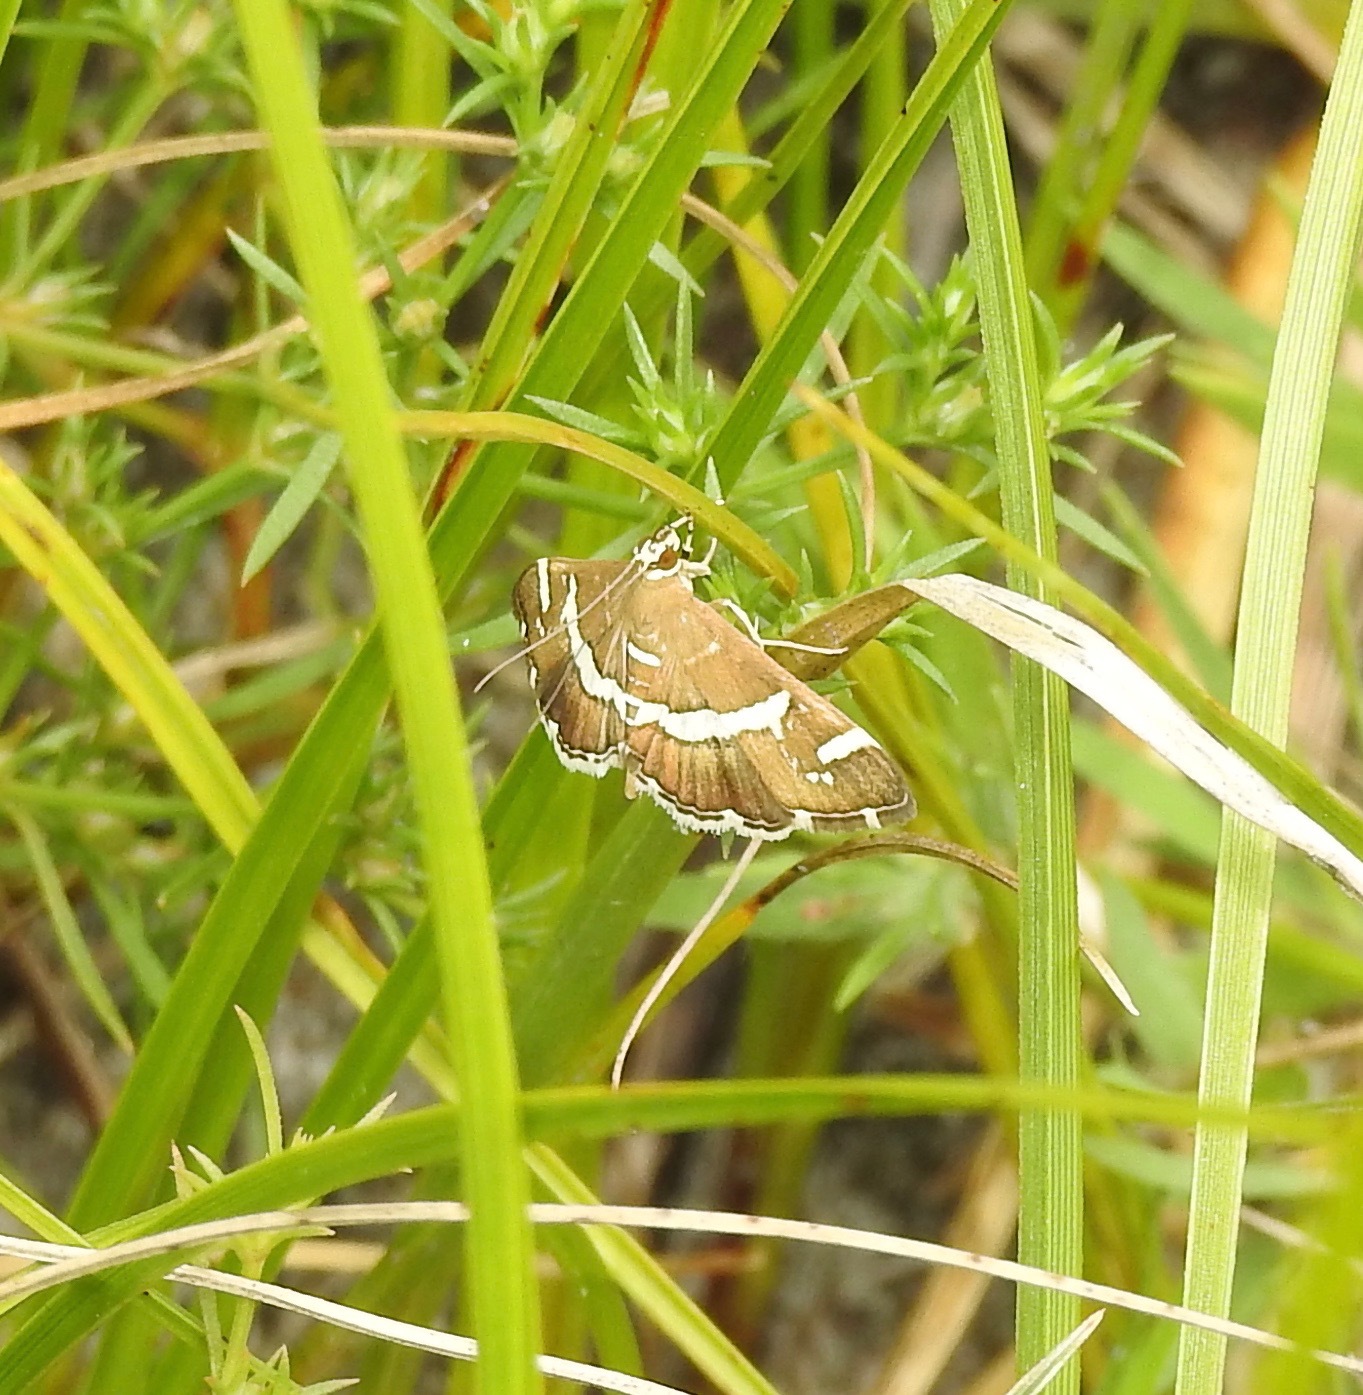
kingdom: Animalia
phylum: Arthropoda
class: Insecta
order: Lepidoptera
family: Crambidae
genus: Spoladea
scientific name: Spoladea recurvalis
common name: Beet webworm moth
